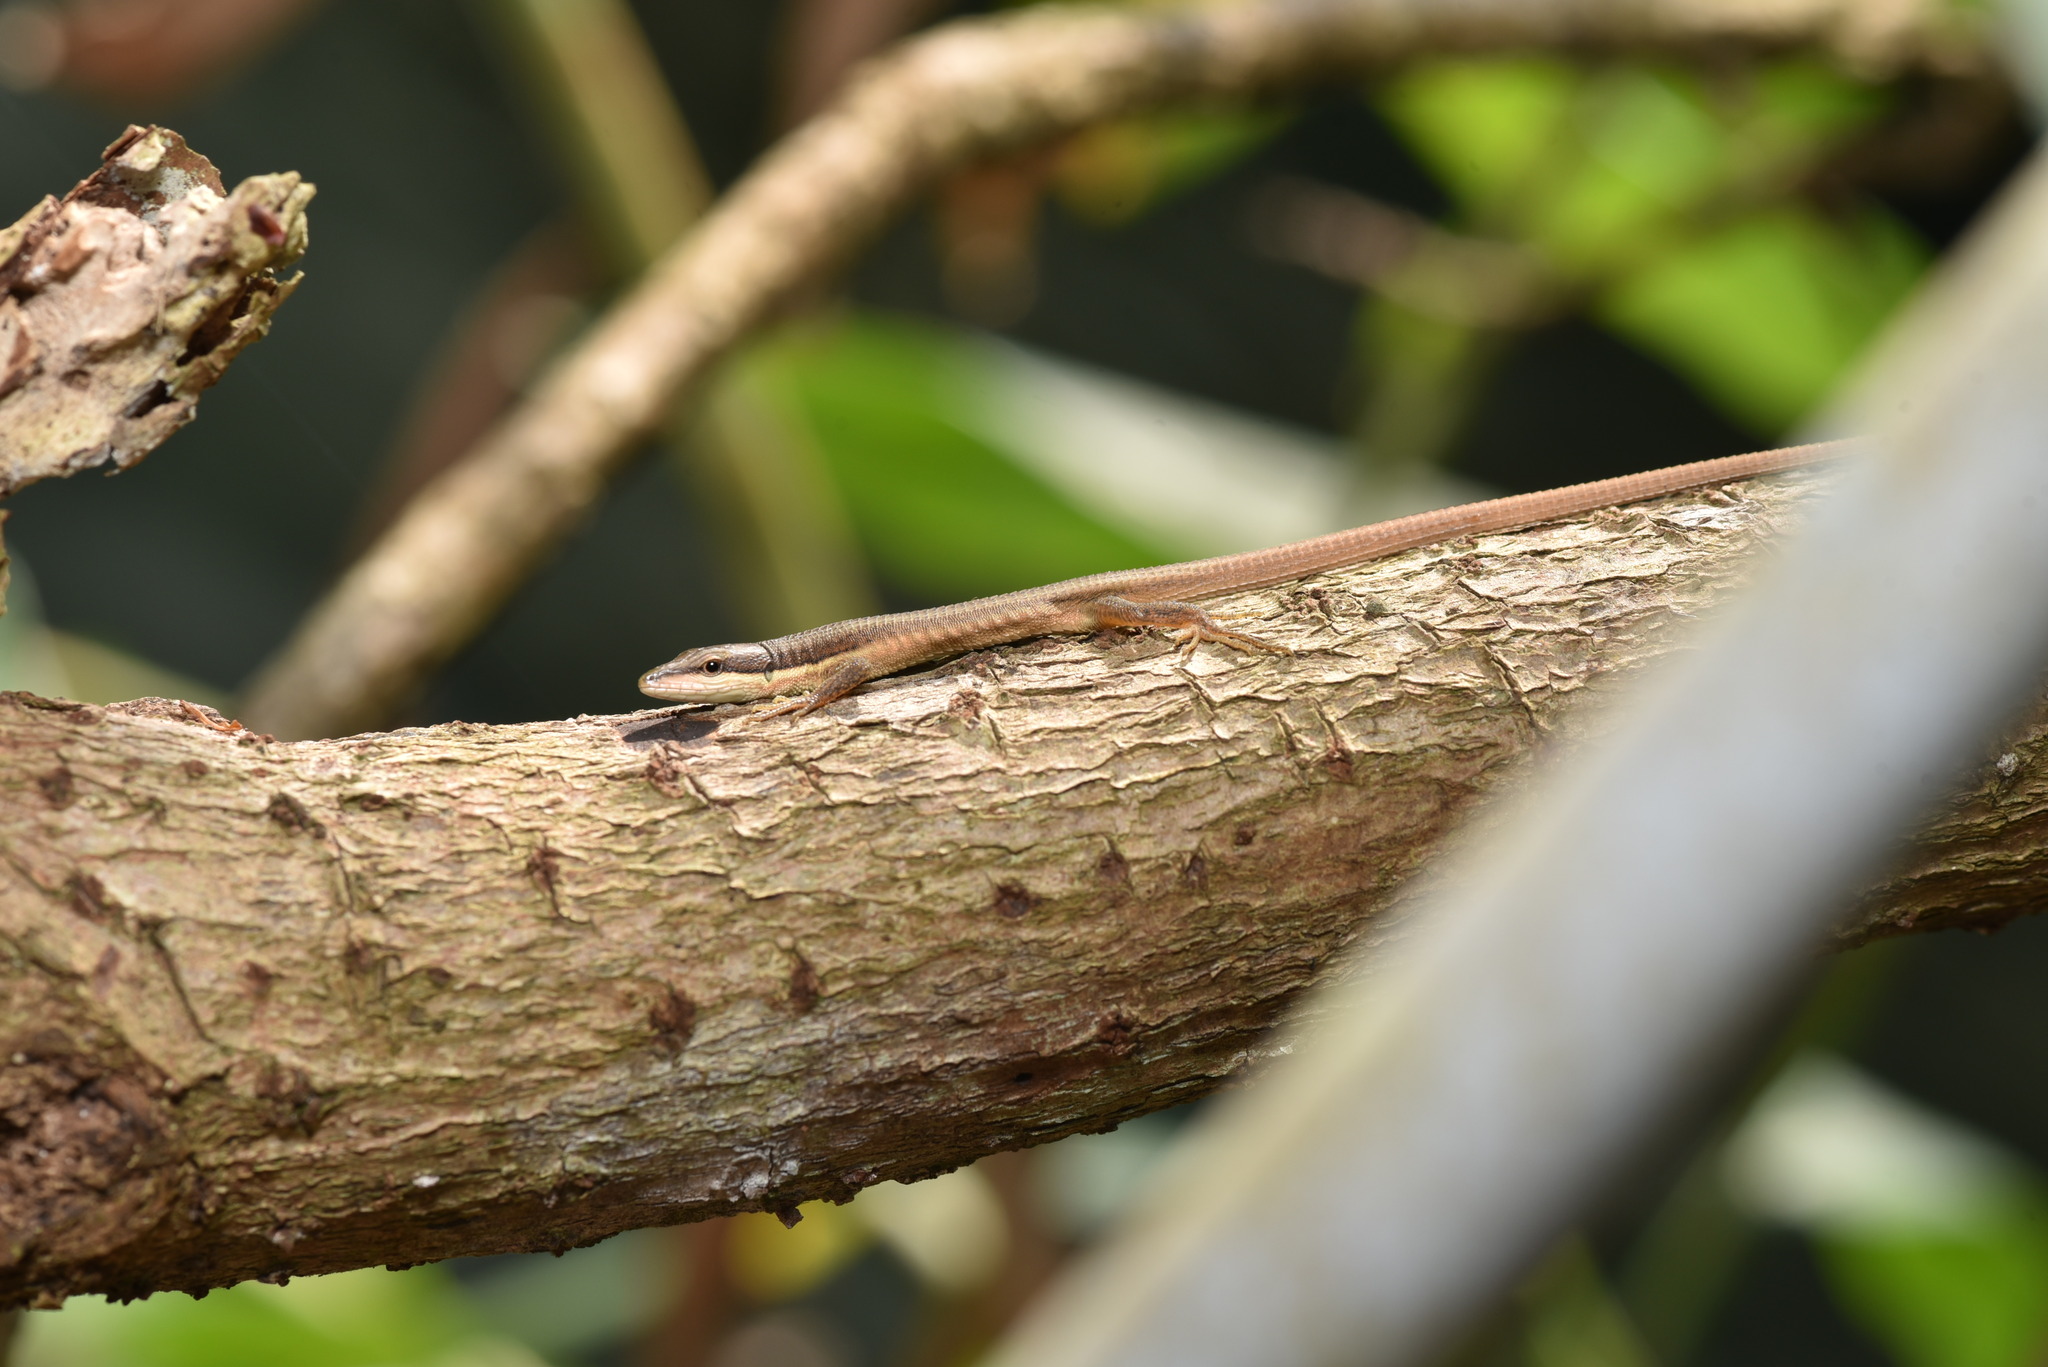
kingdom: Animalia
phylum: Chordata
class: Squamata
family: Lacertidae
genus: Takydromus
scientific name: Takydromus kuehnei
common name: Kuhne’s grass lizard
